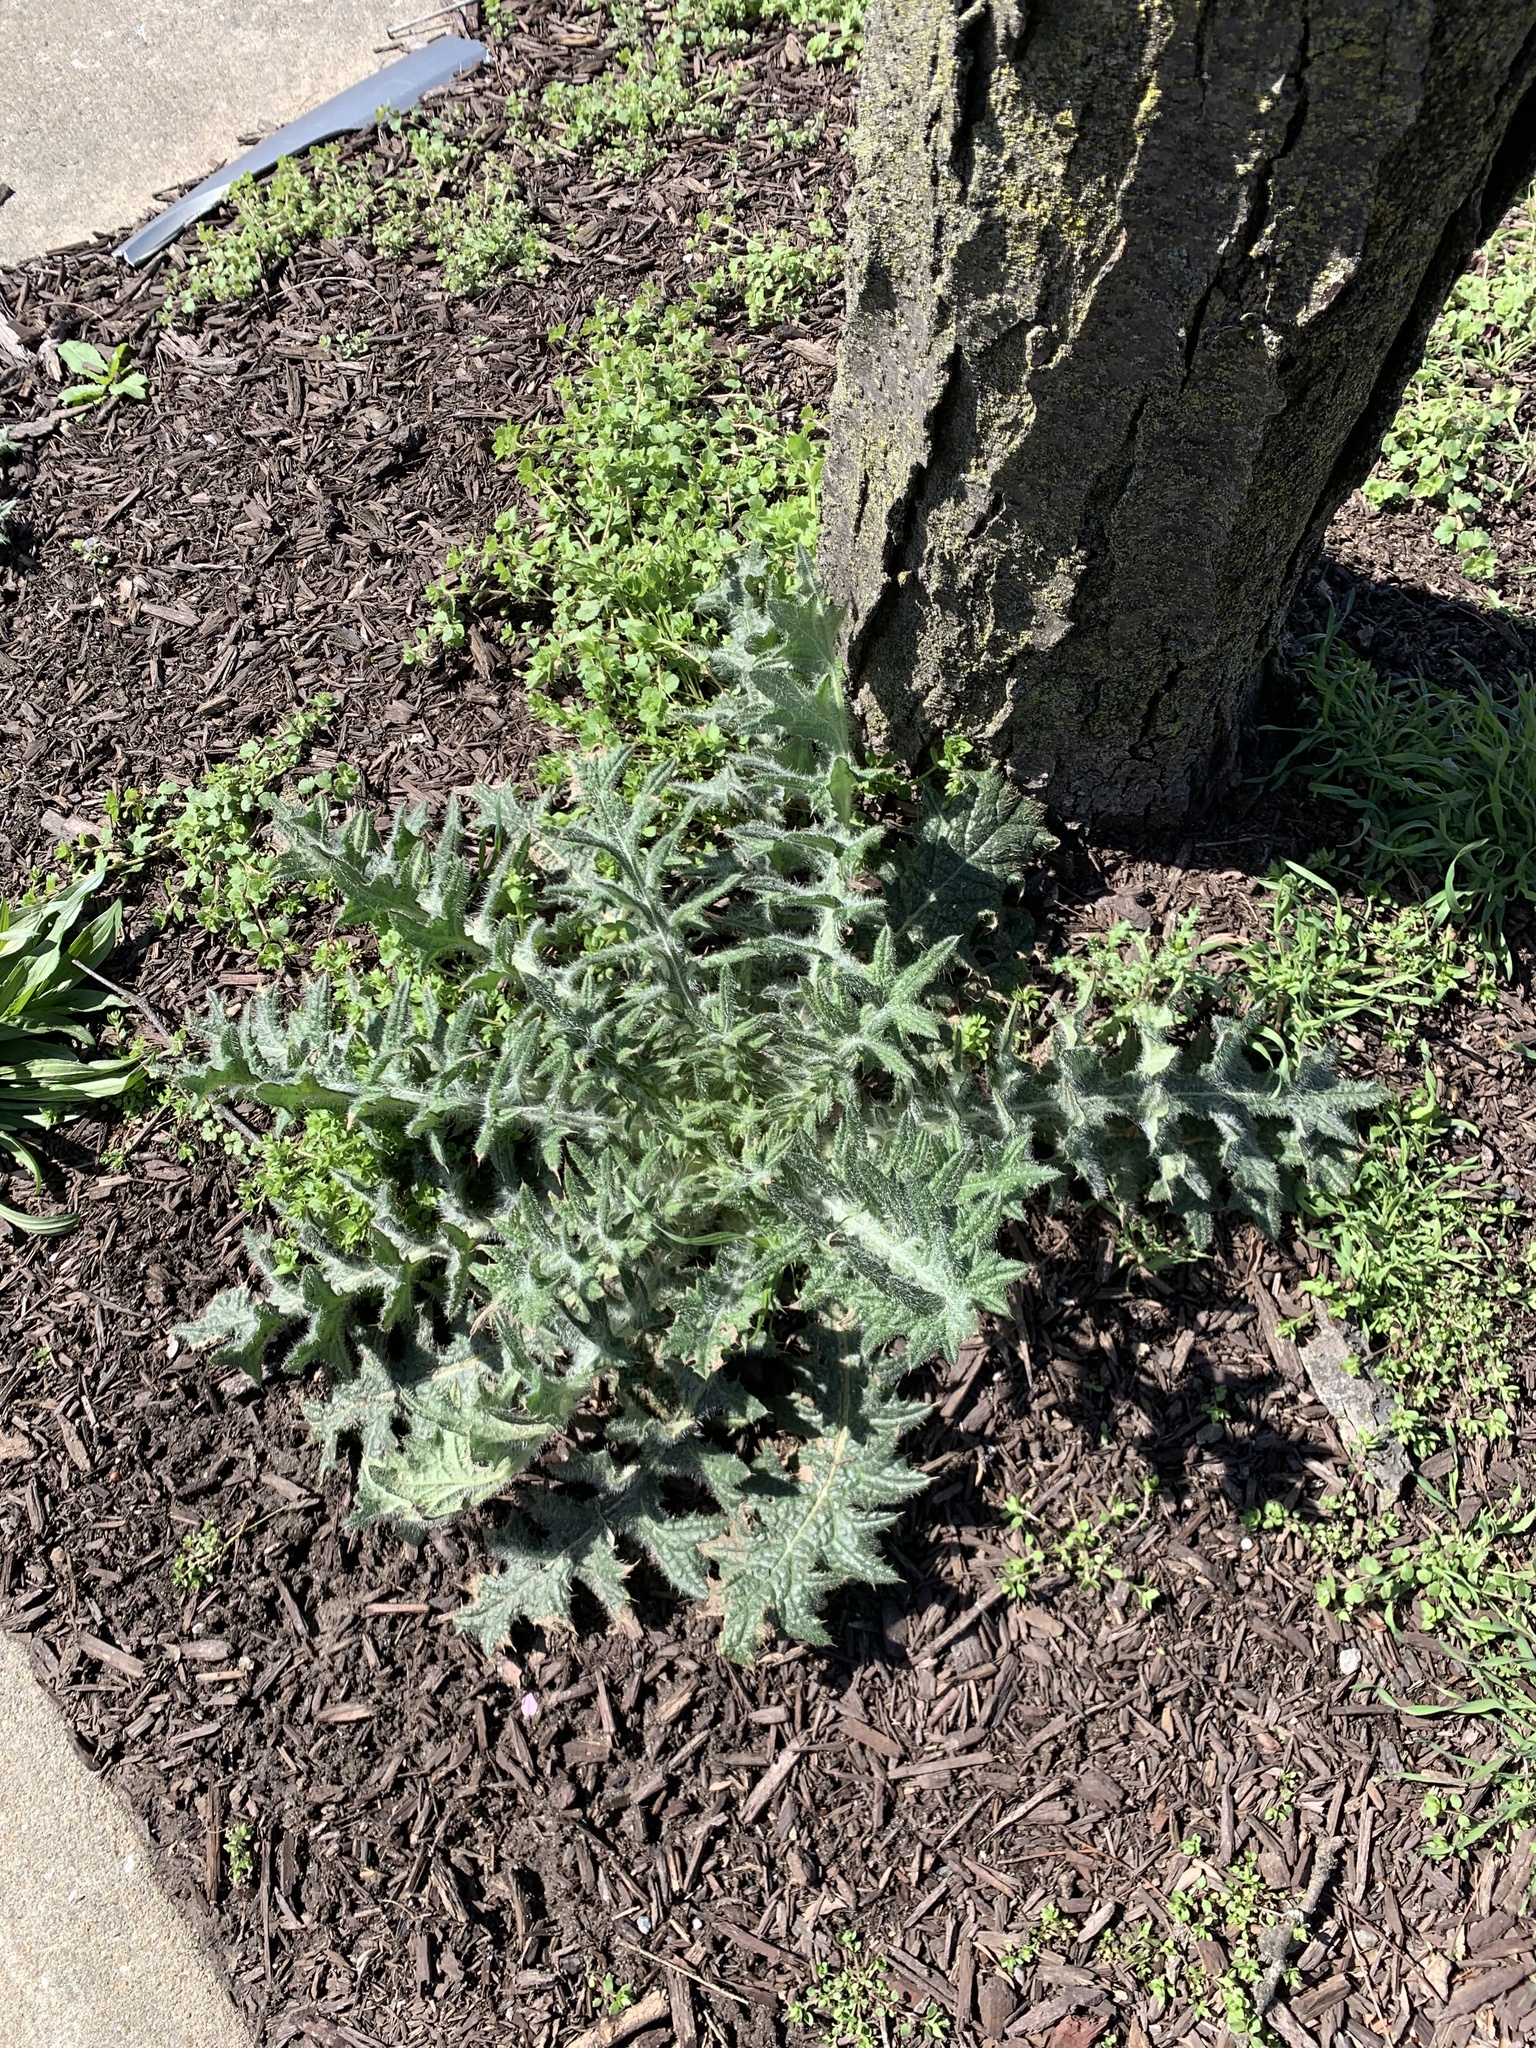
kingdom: Plantae
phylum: Tracheophyta
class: Magnoliopsida
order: Asterales
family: Asteraceae
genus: Cirsium
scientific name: Cirsium vulgare
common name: Bull thistle
